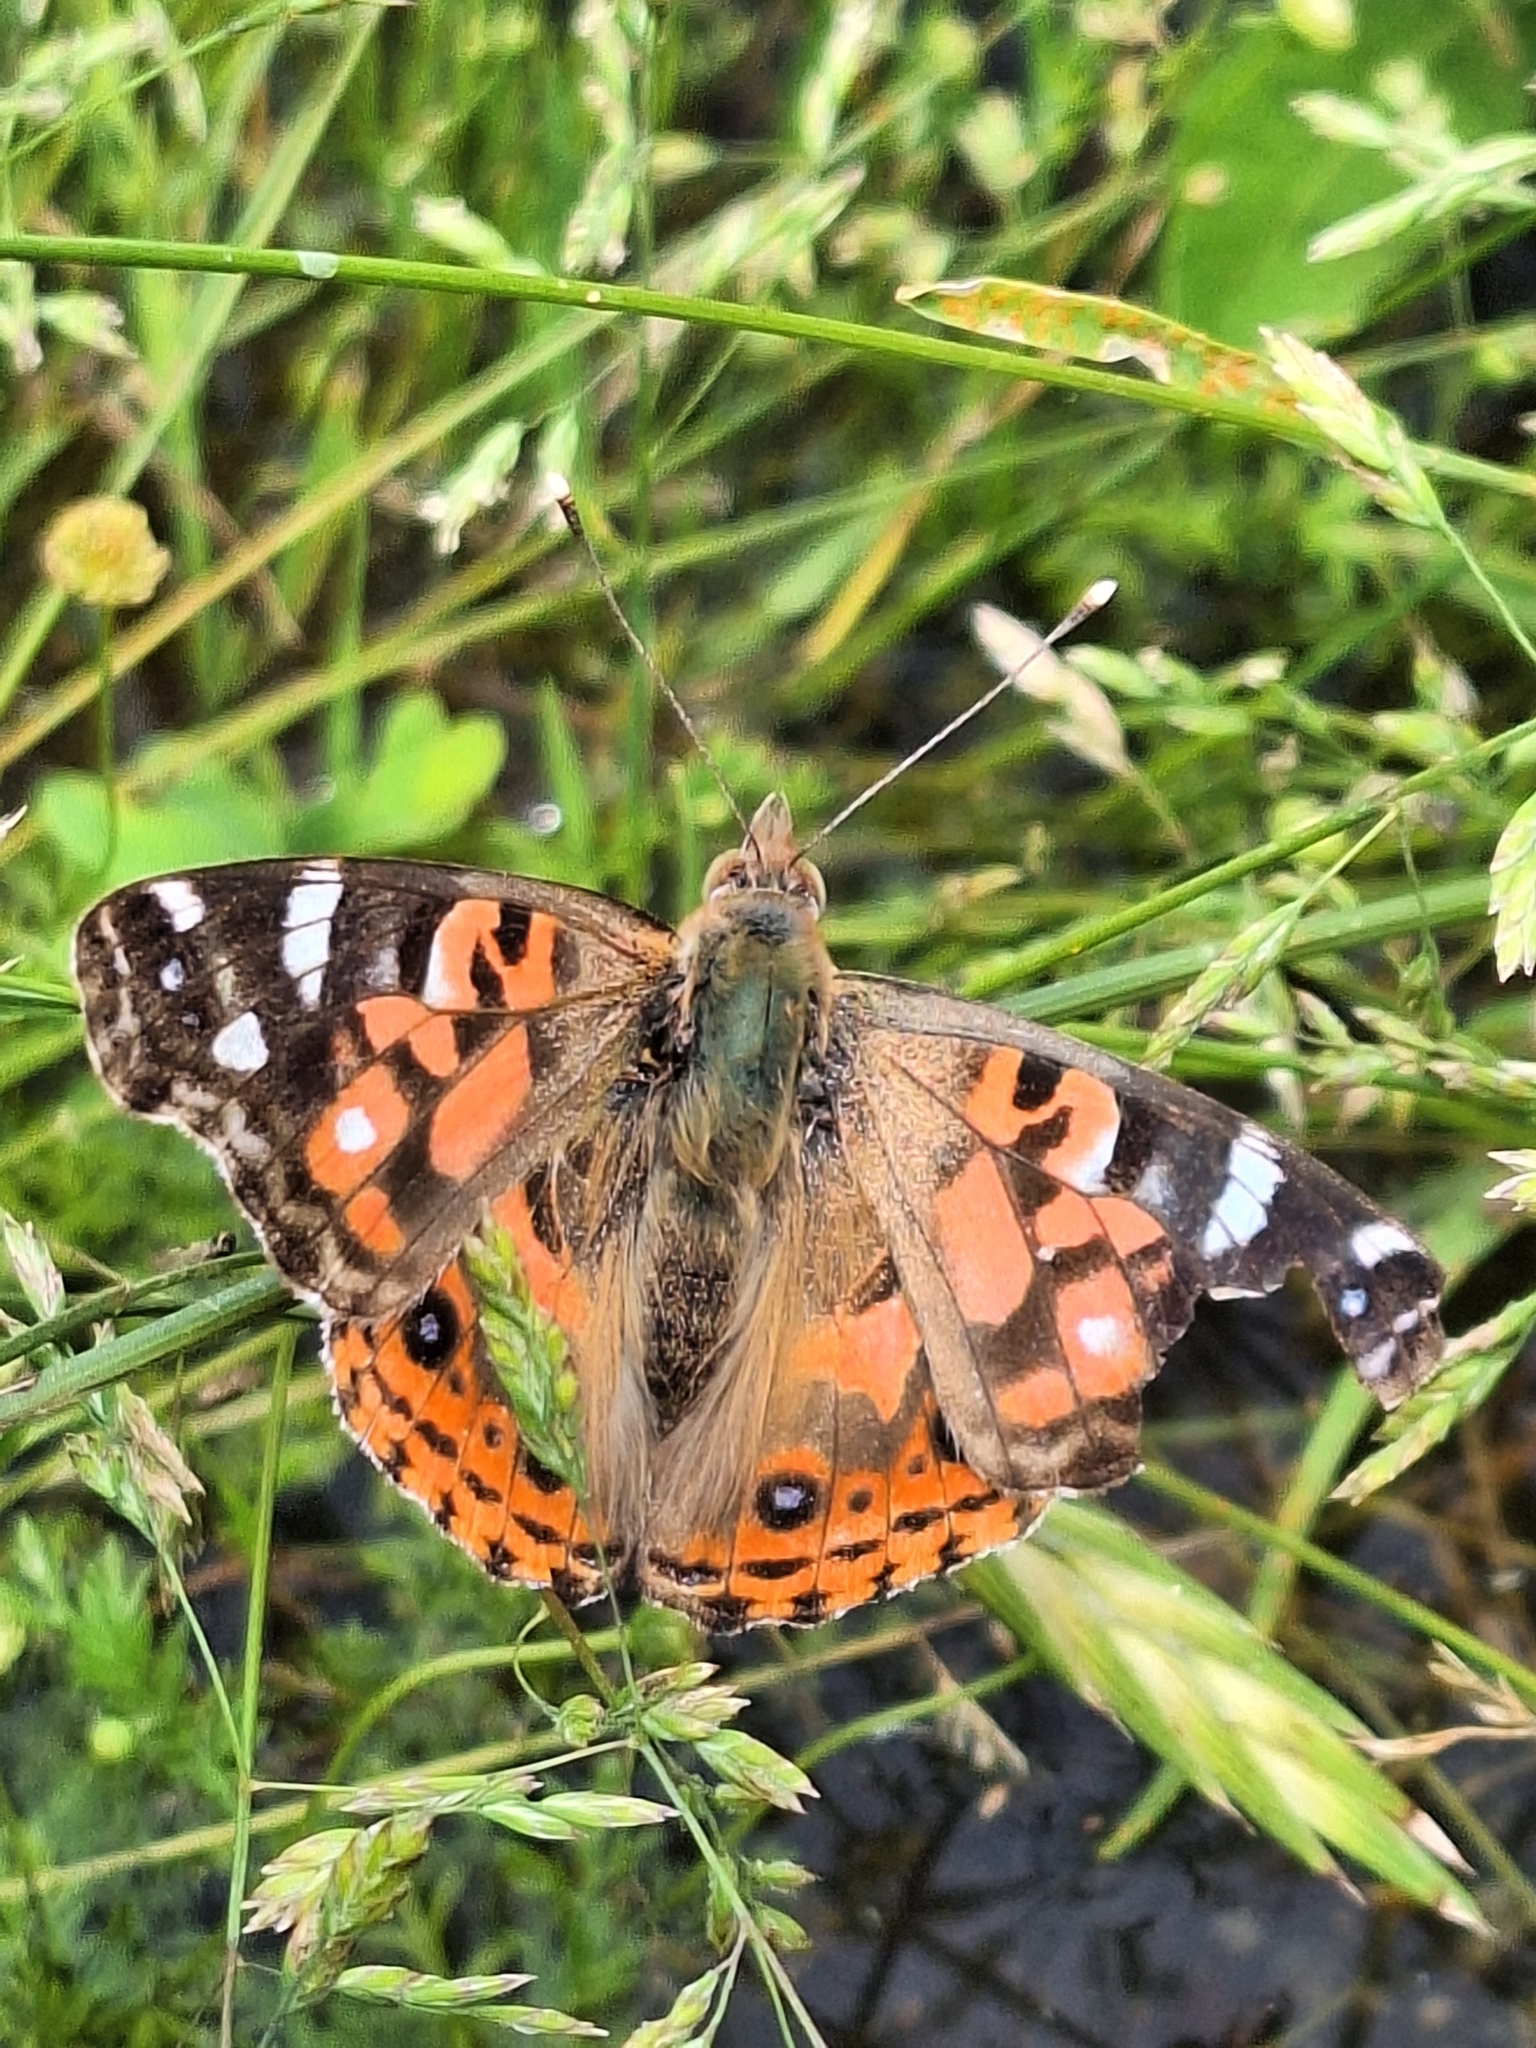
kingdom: Animalia
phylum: Arthropoda
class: Insecta
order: Lepidoptera
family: Nymphalidae
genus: Vanessa
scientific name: Vanessa braziliensis
